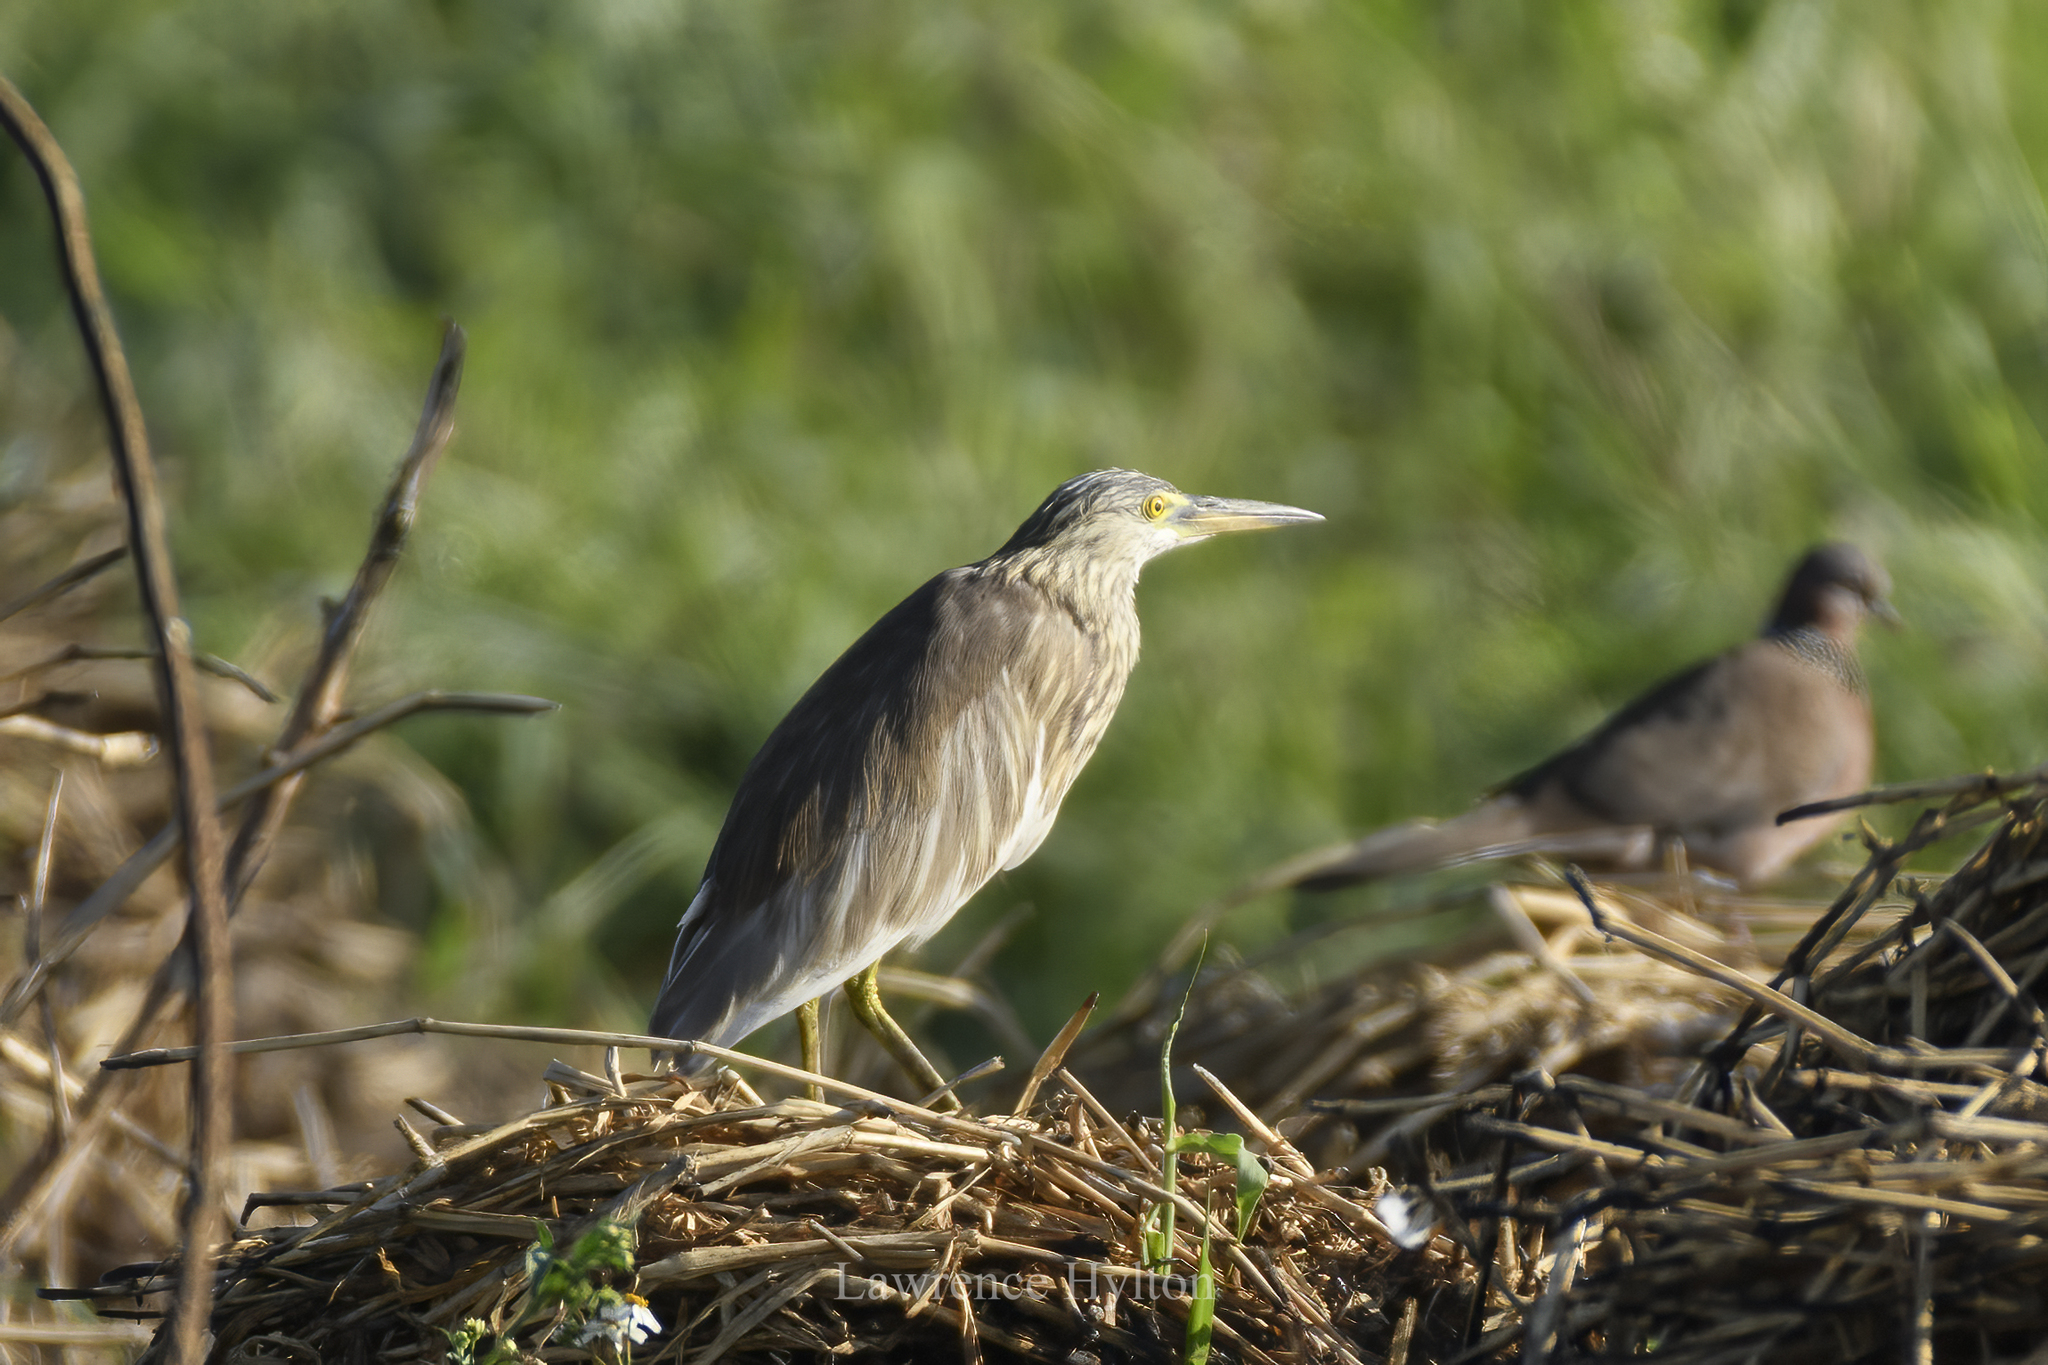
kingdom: Animalia
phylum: Chordata
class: Aves
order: Pelecaniformes
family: Ardeidae
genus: Ardeola
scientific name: Ardeola bacchus
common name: Chinese pond heron
